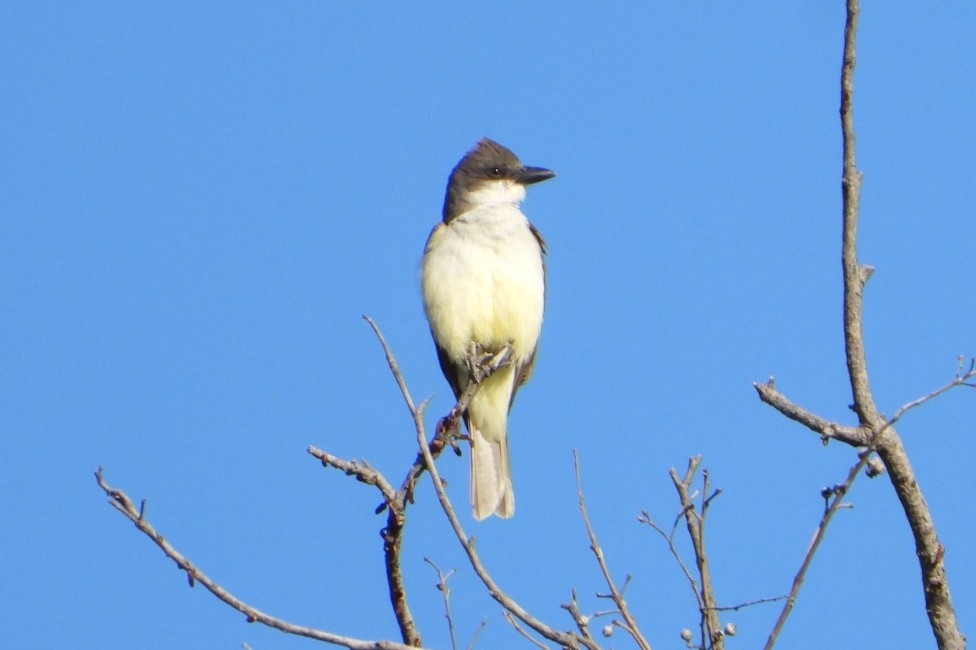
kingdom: Animalia
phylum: Chordata
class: Aves
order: Passeriformes
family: Tyrannidae
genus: Tyrannus
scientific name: Tyrannus crassirostris
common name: Thick-billed kingbird
